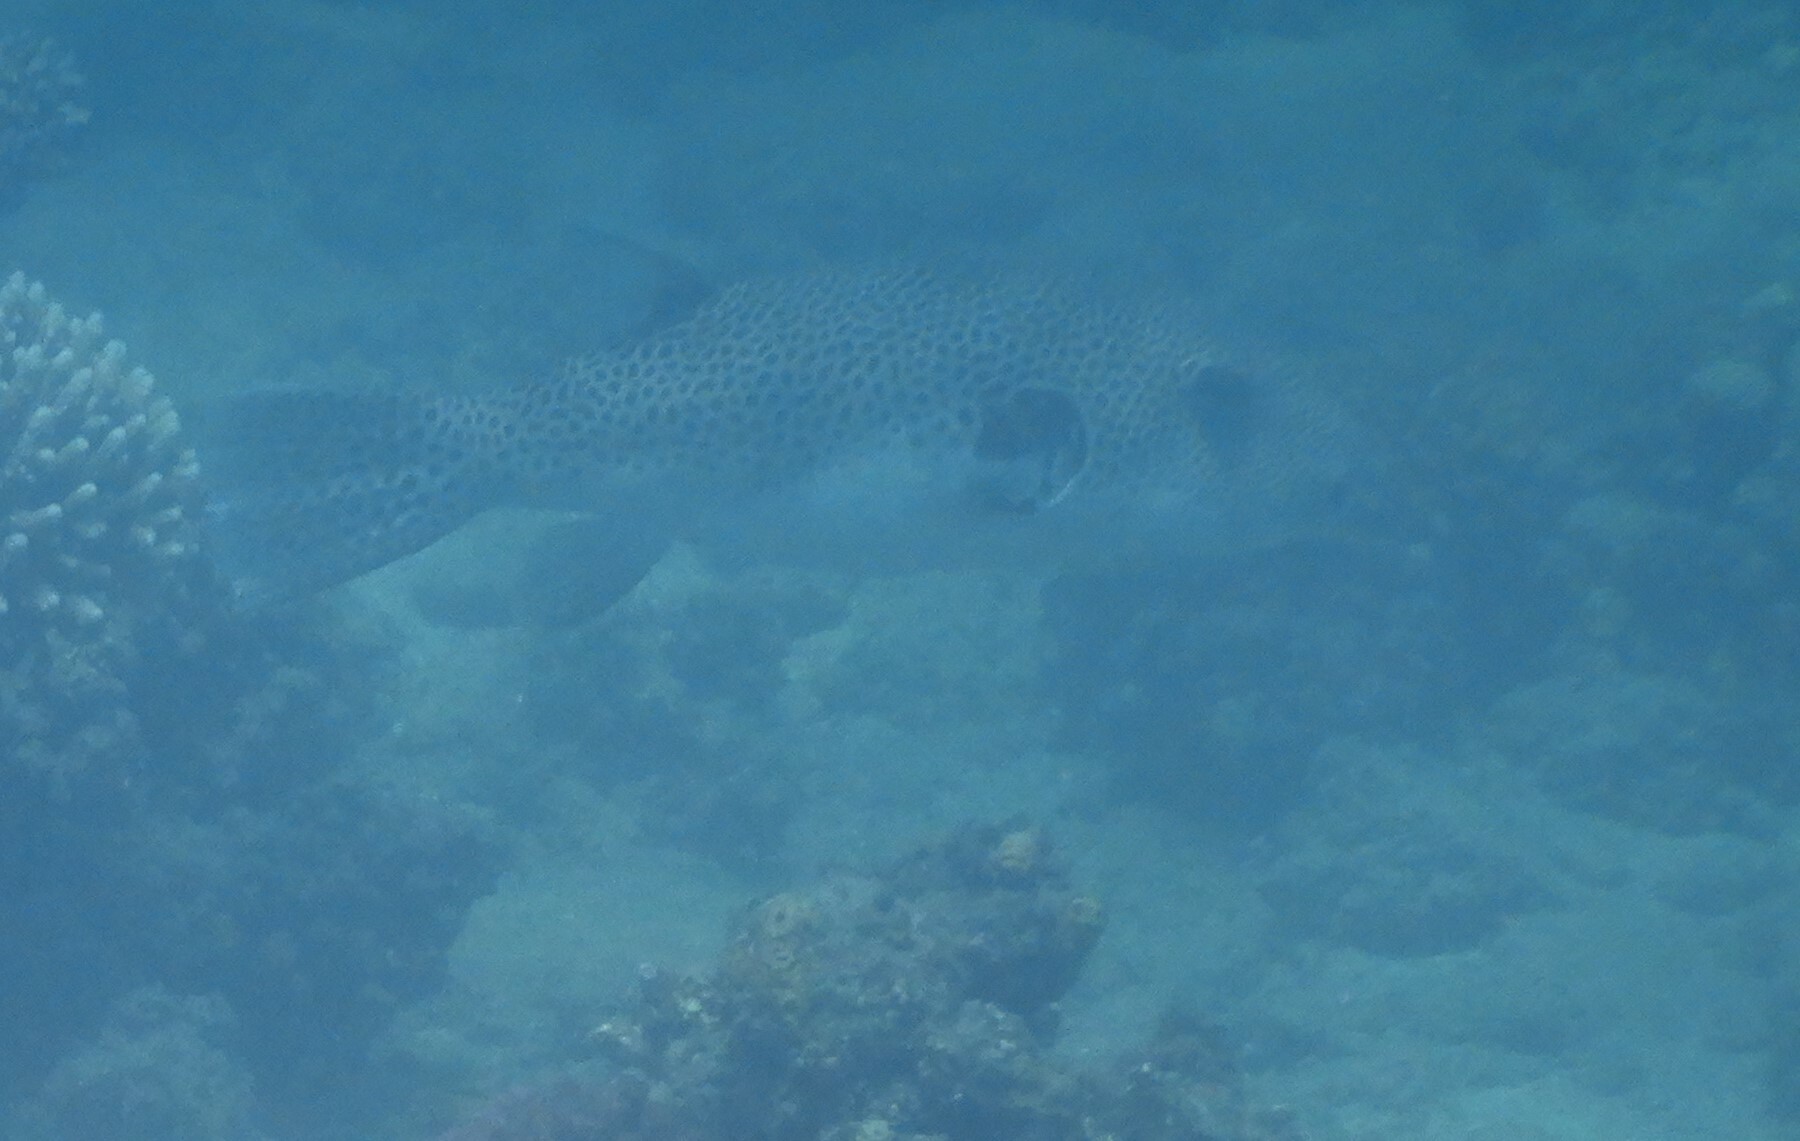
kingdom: Animalia
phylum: Chordata
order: Tetraodontiformes
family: Tetraodontidae
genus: Arothron
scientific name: Arothron stellatus
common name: Star blaasop
